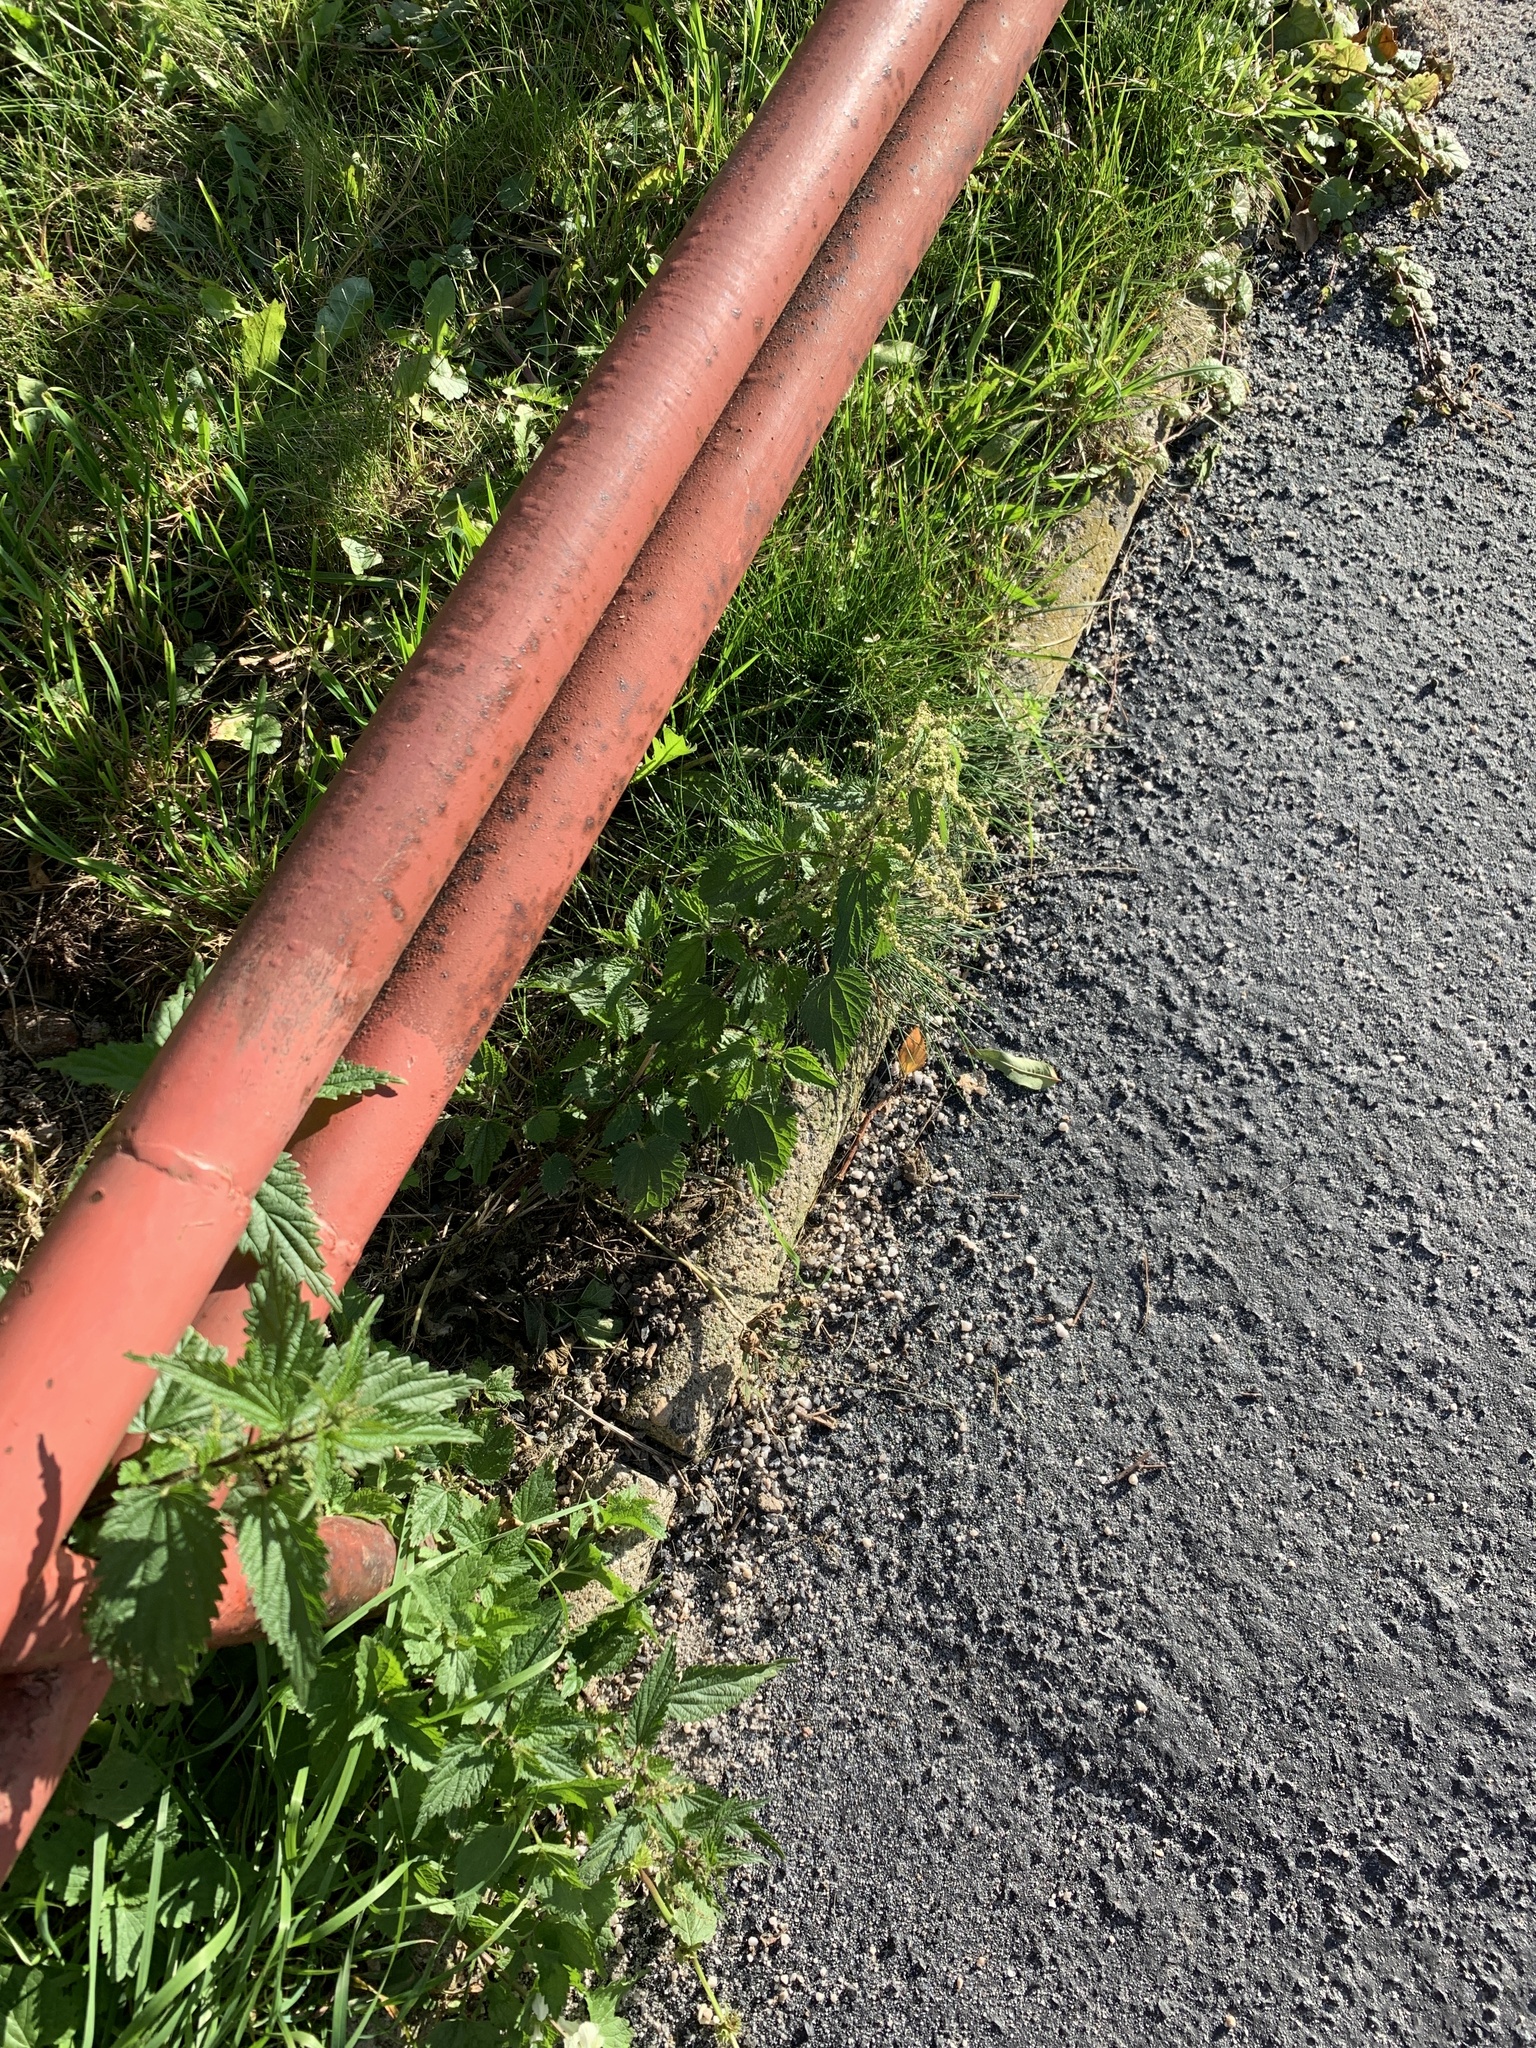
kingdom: Plantae
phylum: Tracheophyta
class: Magnoliopsida
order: Rosales
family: Urticaceae
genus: Urtica
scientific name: Urtica dioica
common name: Common nettle
